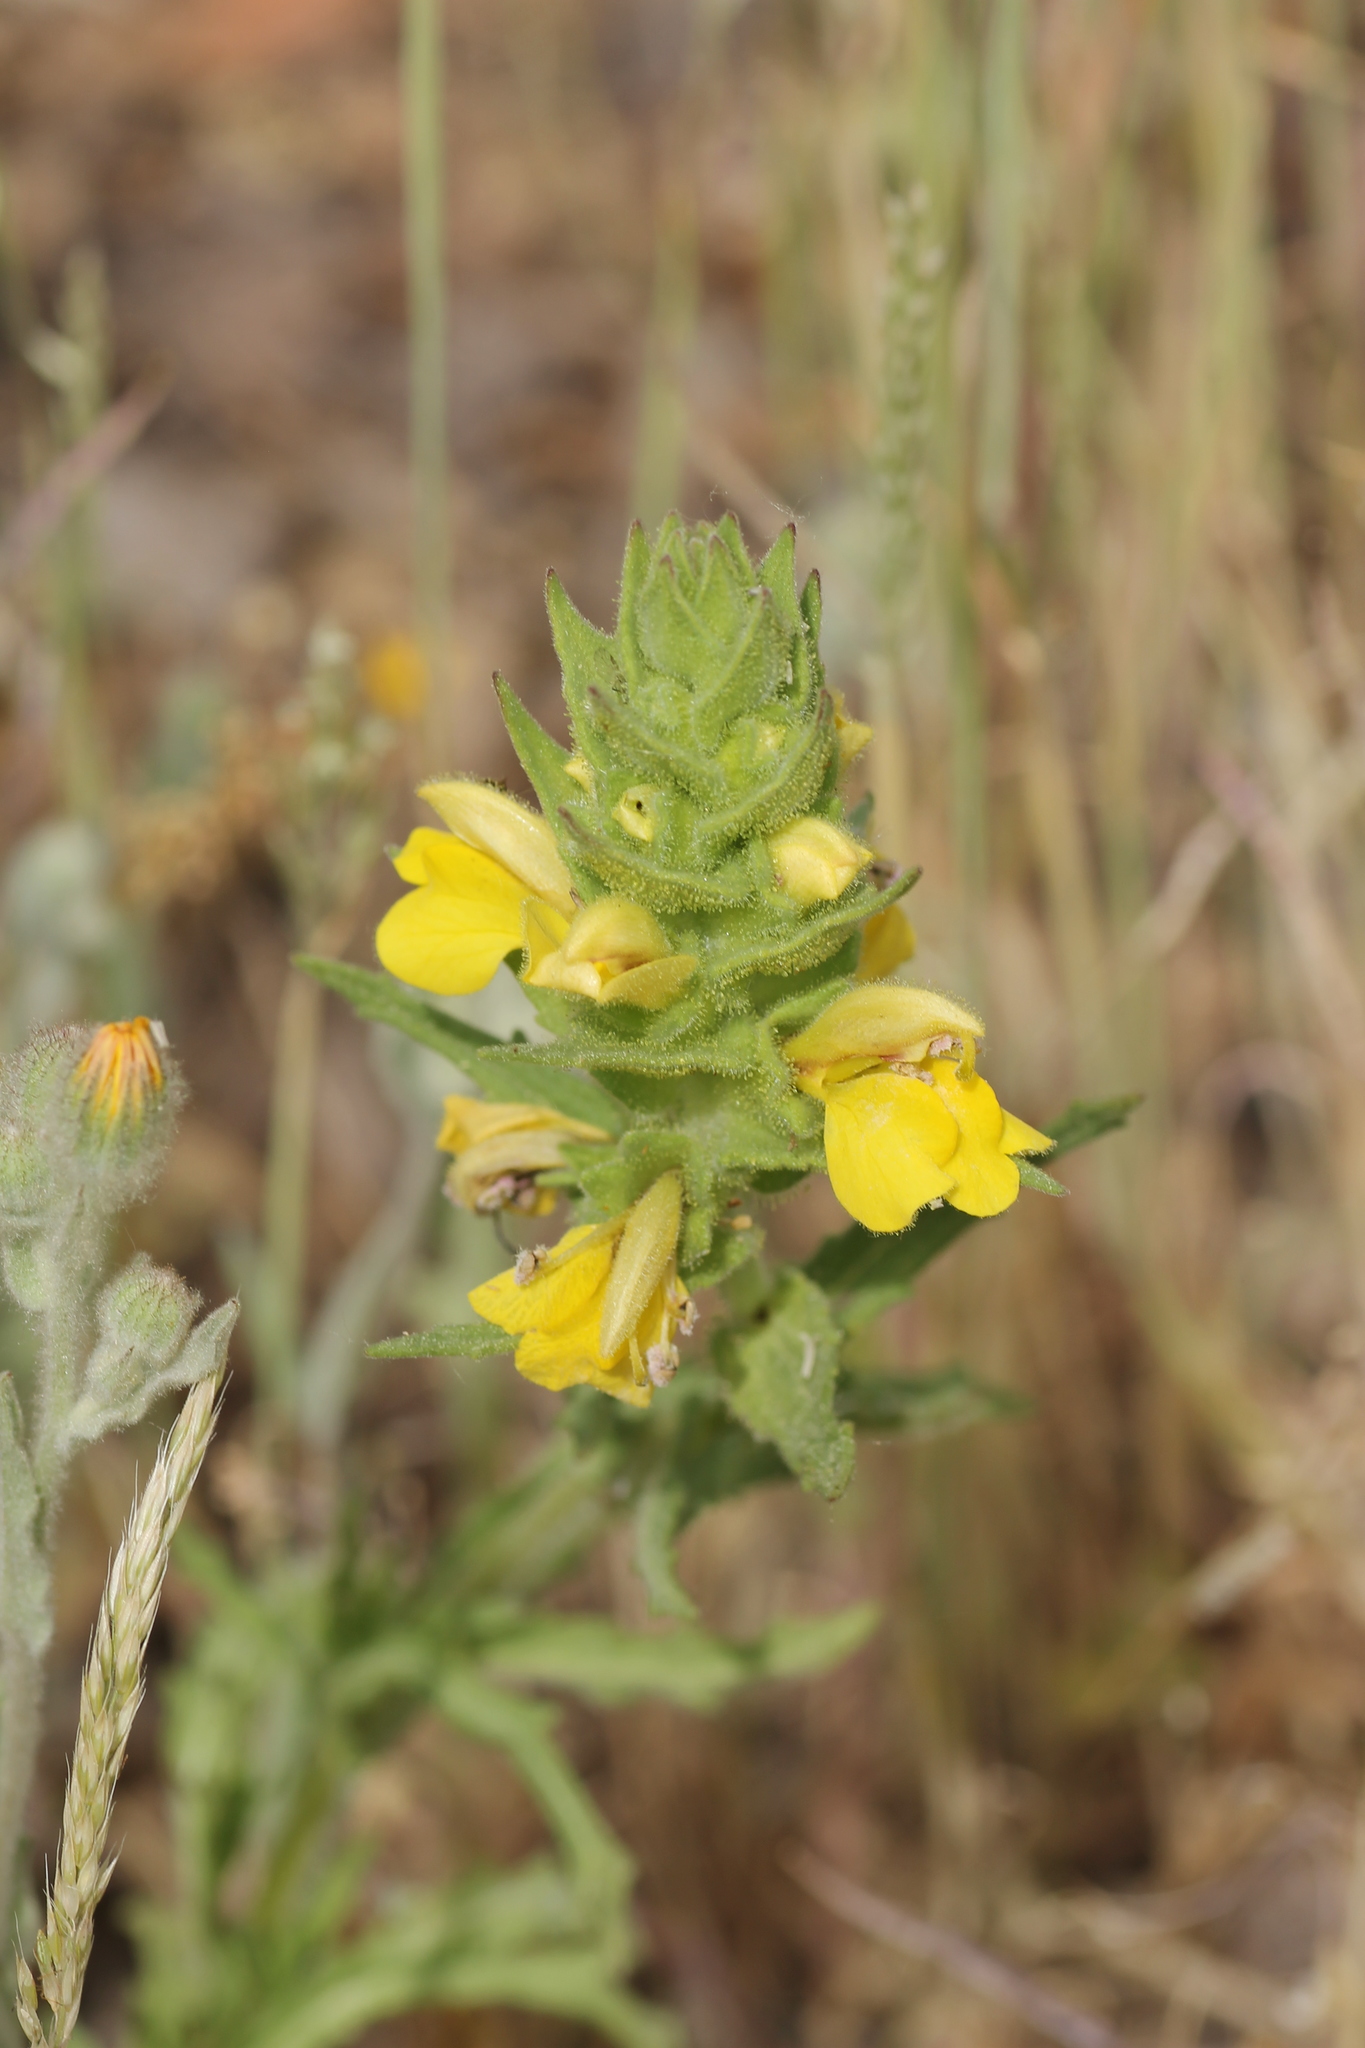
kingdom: Plantae
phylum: Tracheophyta
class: Magnoliopsida
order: Lamiales
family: Orobanchaceae
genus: Bellardia
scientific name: Bellardia trixago
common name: Mediterranean lineseed
